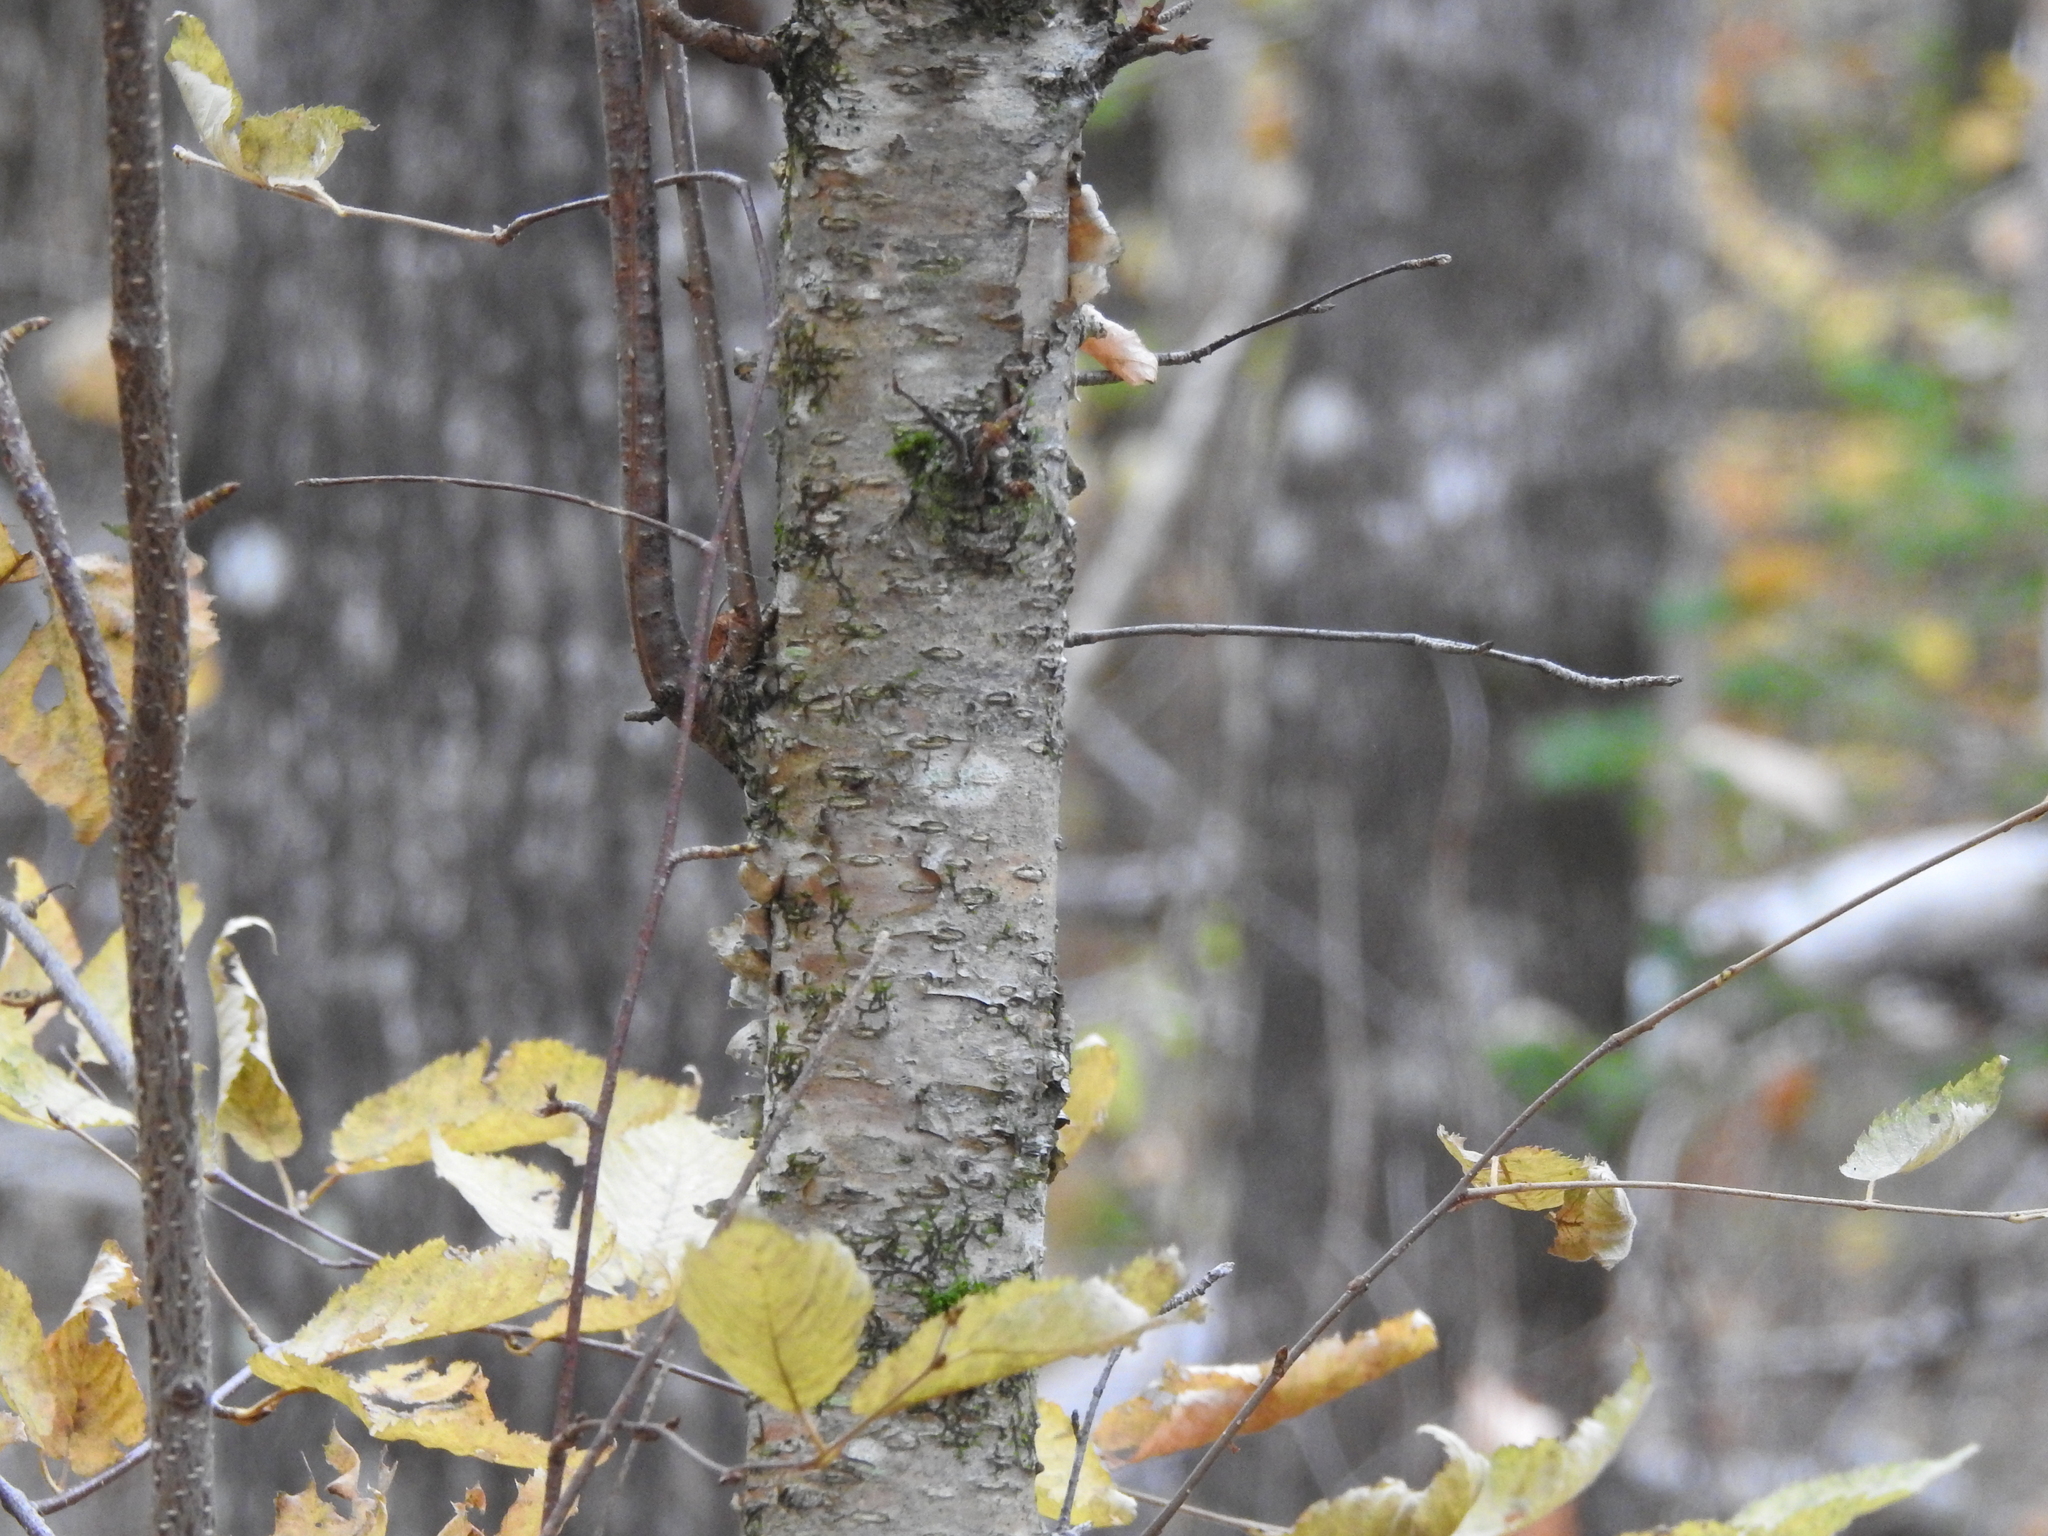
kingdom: Plantae
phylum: Tracheophyta
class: Magnoliopsida
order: Fagales
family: Betulaceae
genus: Betula
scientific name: Betula alleghaniensis
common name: Yellow birch
